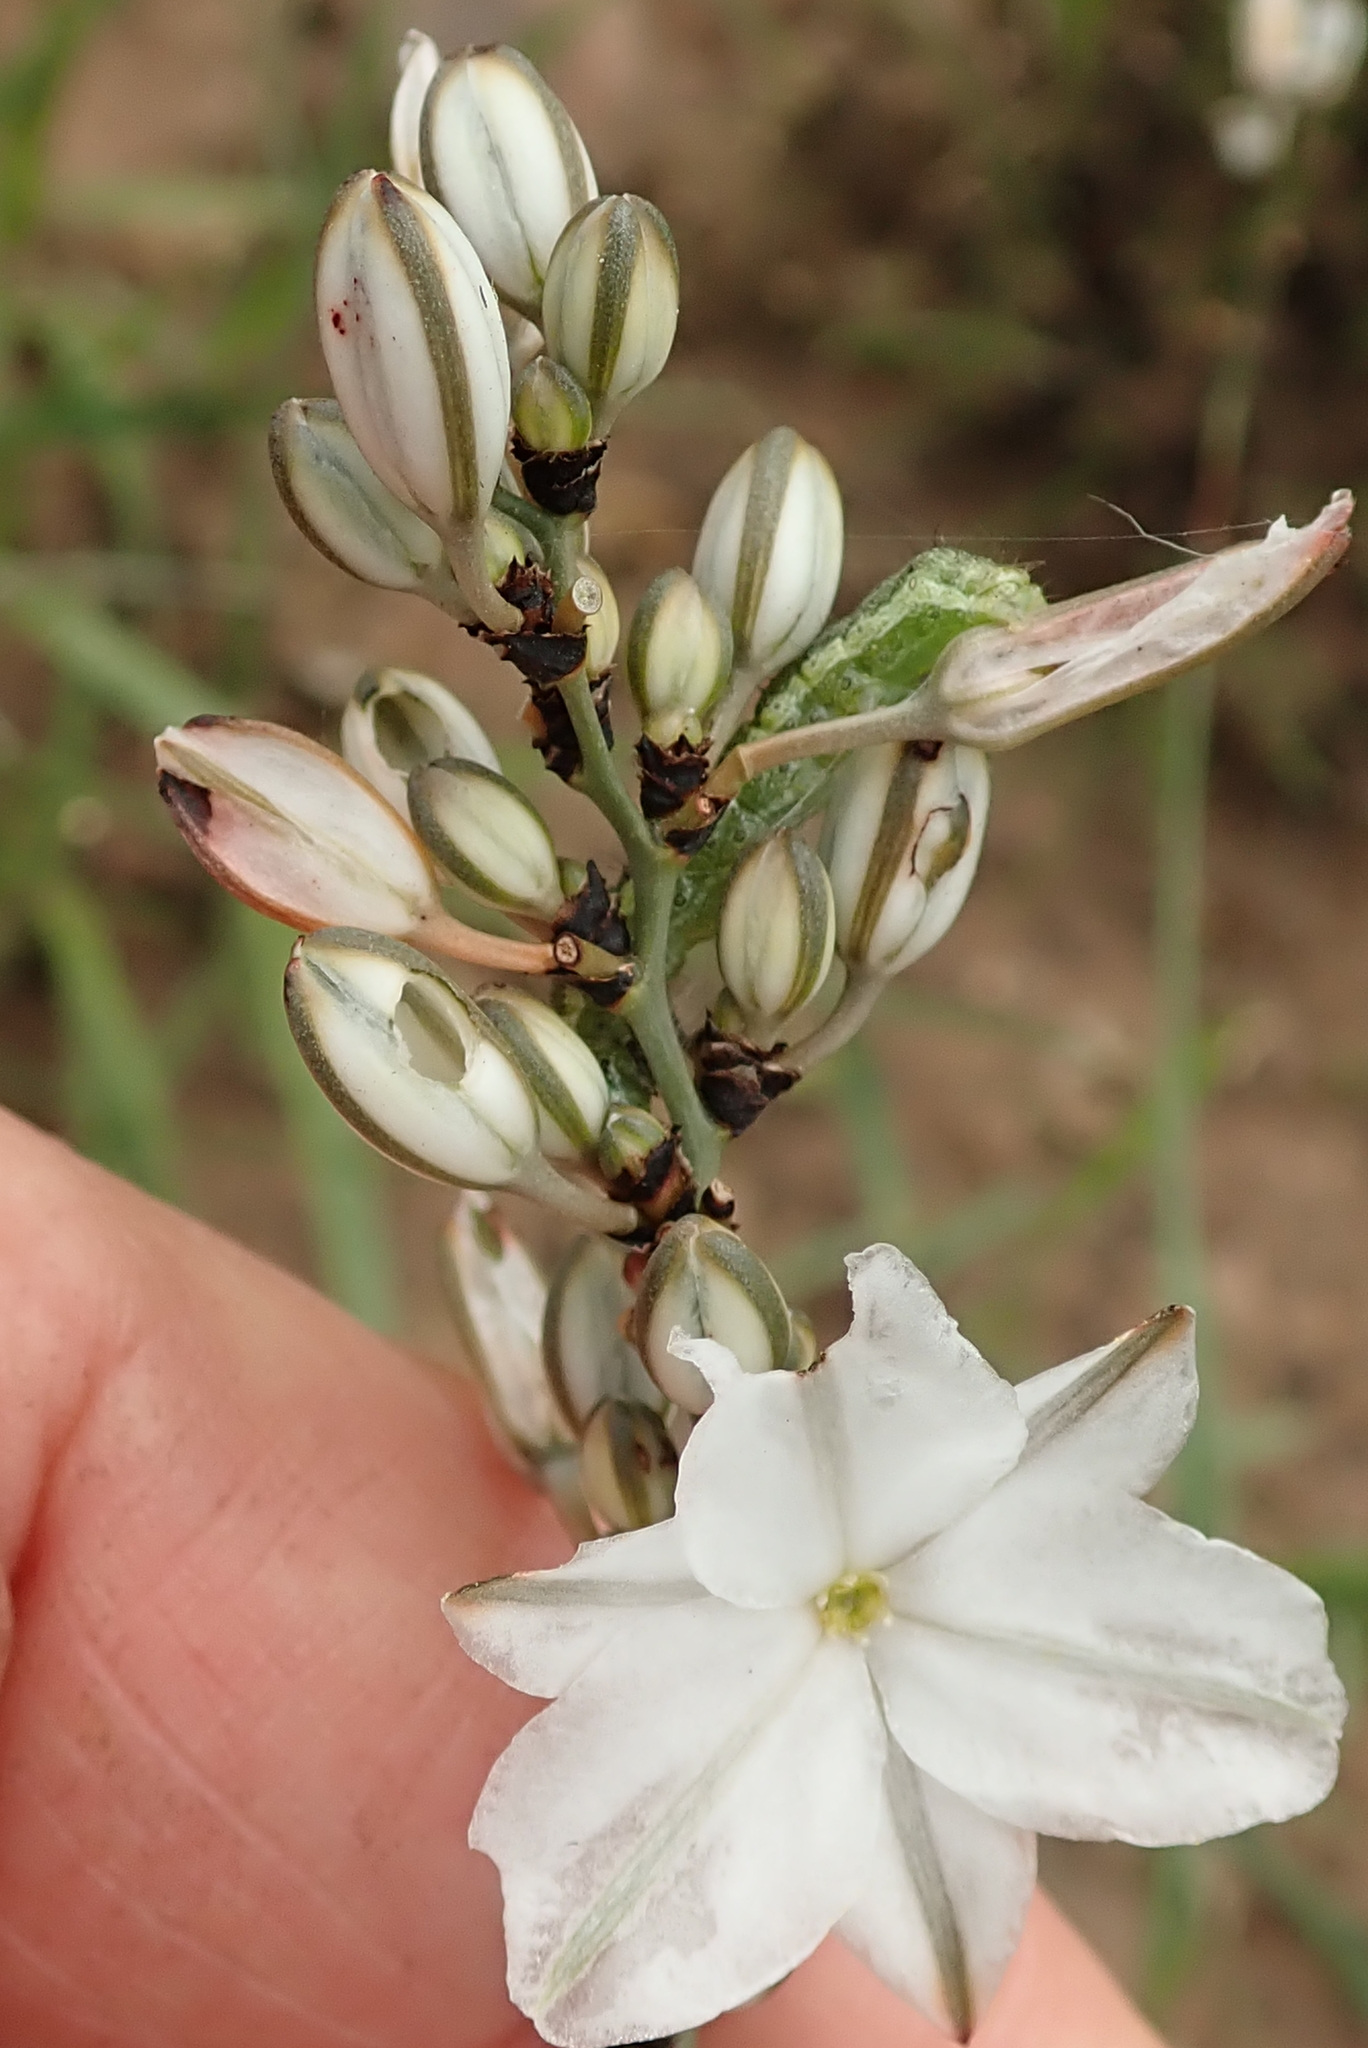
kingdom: Plantae
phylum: Tracheophyta
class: Liliopsida
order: Asparagales
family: Asparagaceae
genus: Chlorophytum
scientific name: Chlorophytum angulicaule
